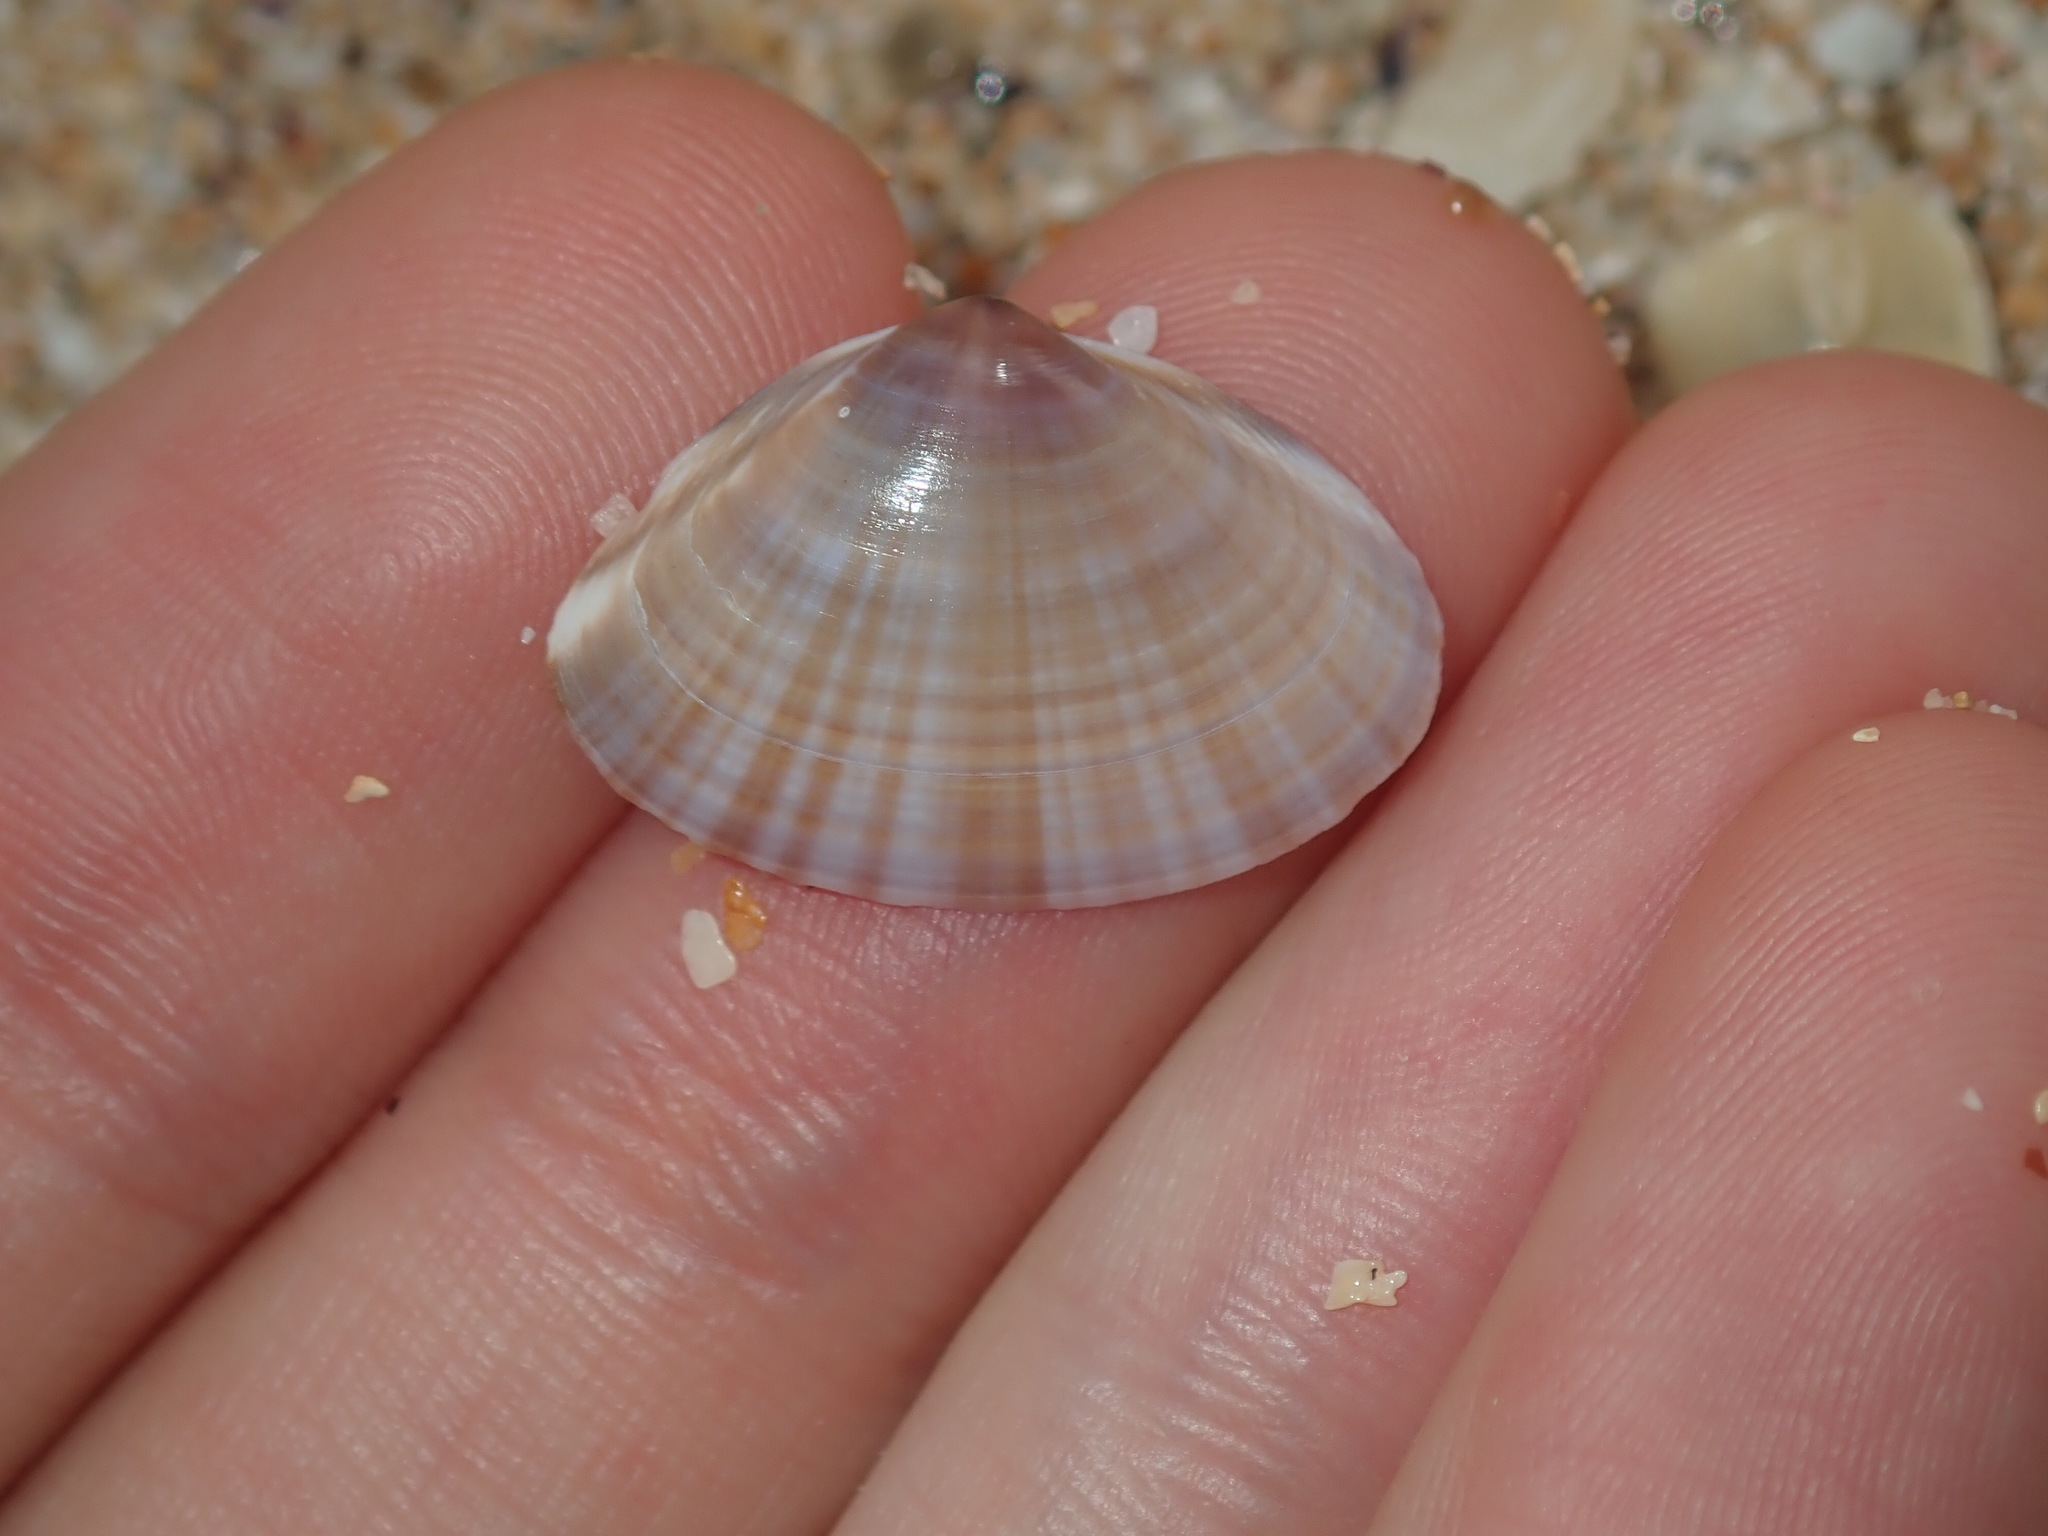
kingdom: Animalia
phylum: Mollusca
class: Bivalvia
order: Venerida
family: Mactridae
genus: Mactra
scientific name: Mactra pusilla
